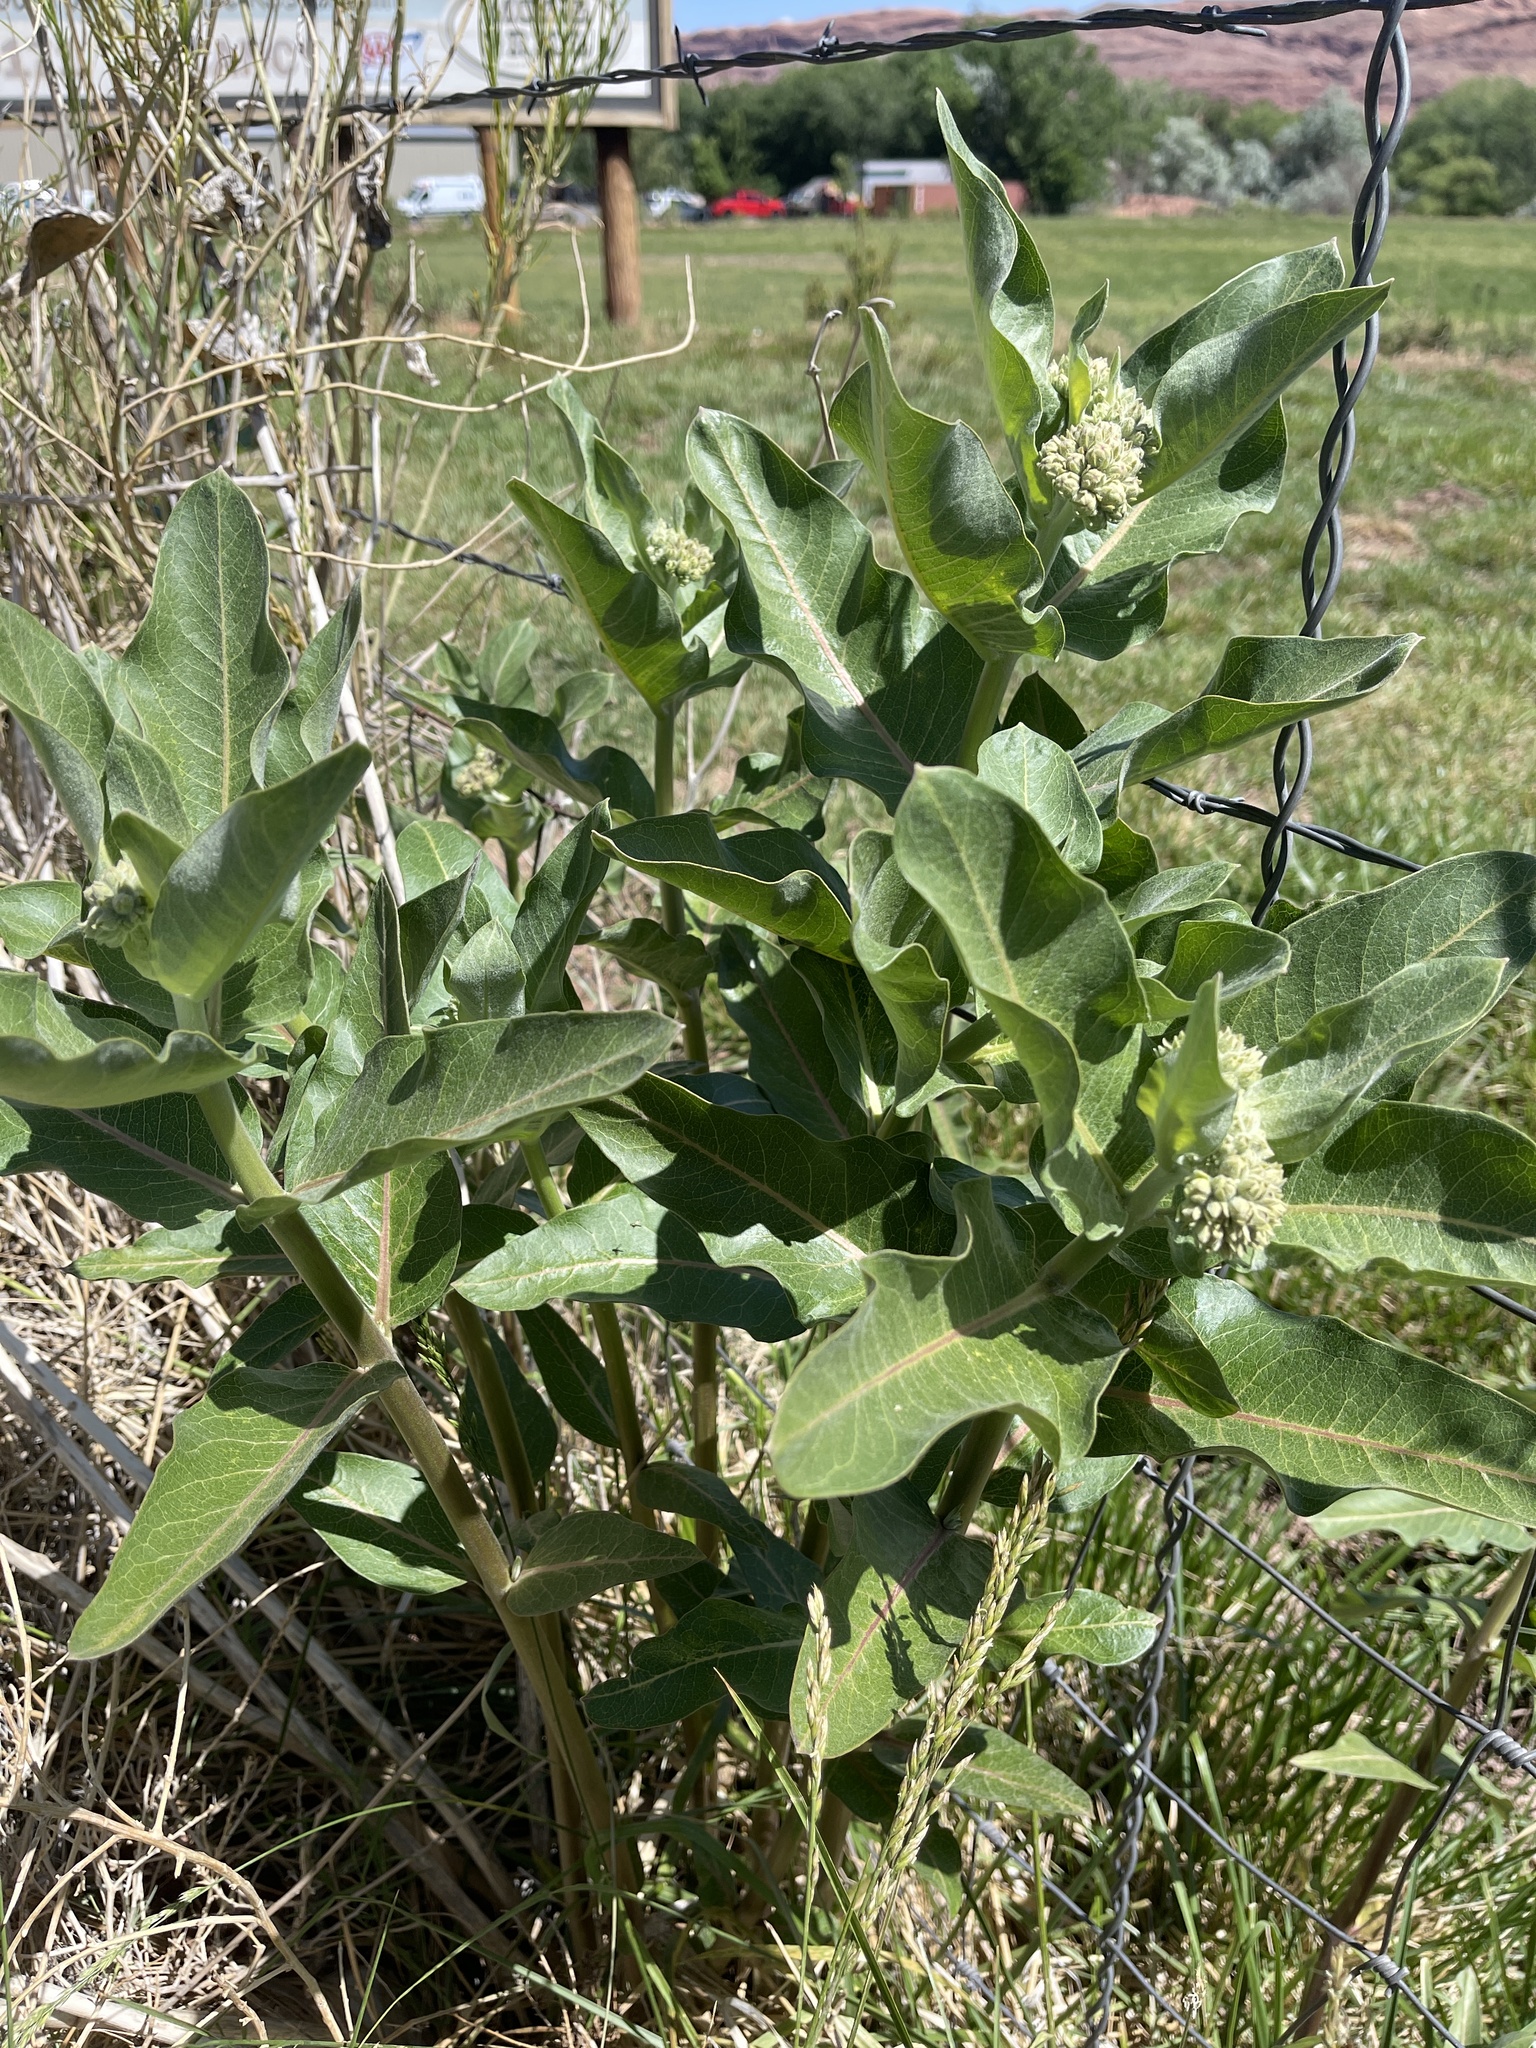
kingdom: Plantae
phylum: Tracheophyta
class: Magnoliopsida
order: Gentianales
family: Apocynaceae
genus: Asclepias
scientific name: Asclepias speciosa
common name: Showy milkweed
